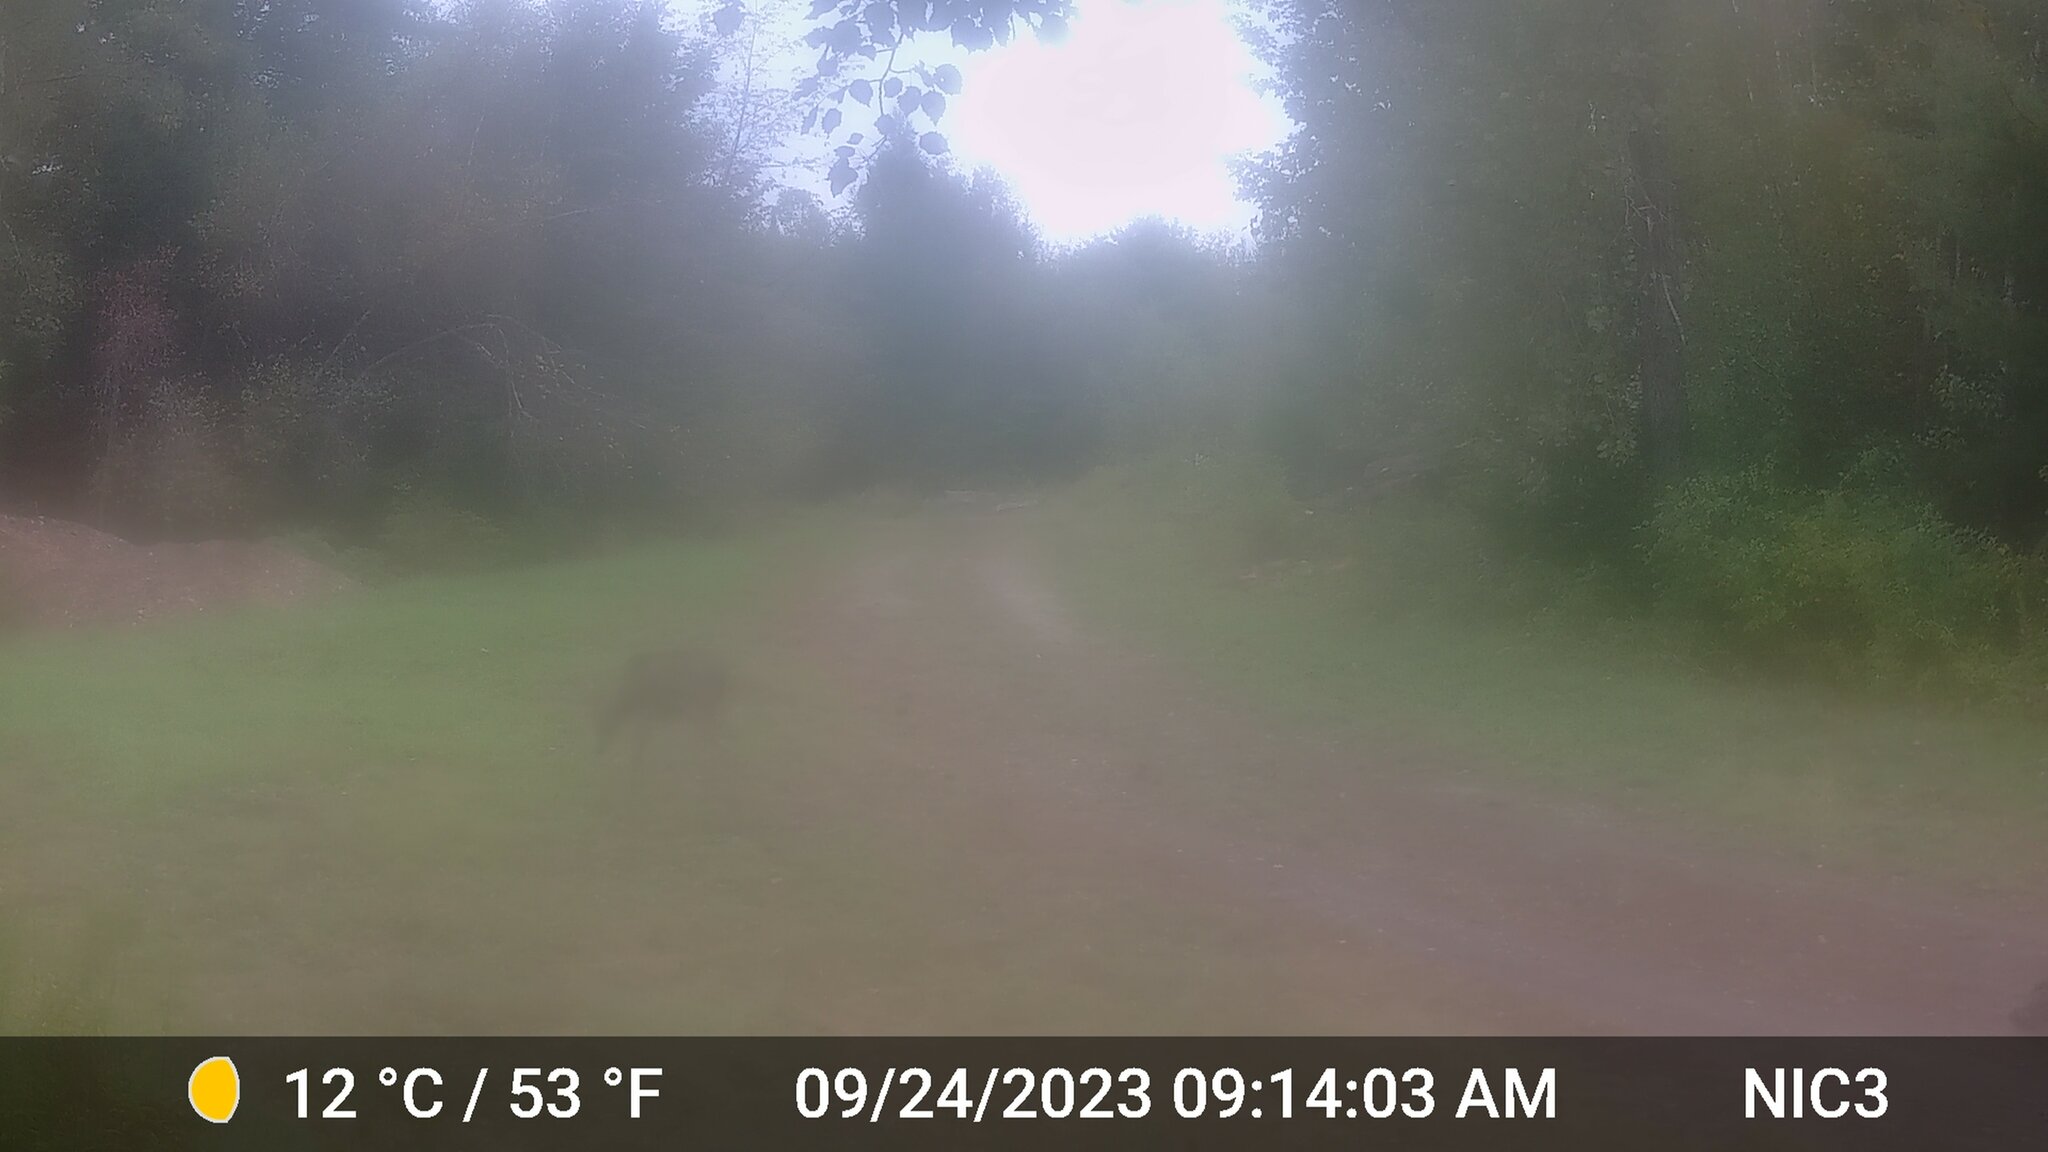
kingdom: Animalia
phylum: Chordata
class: Mammalia
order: Artiodactyla
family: Cervidae
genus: Odocoileus
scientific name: Odocoileus virginianus
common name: White-tailed deer
